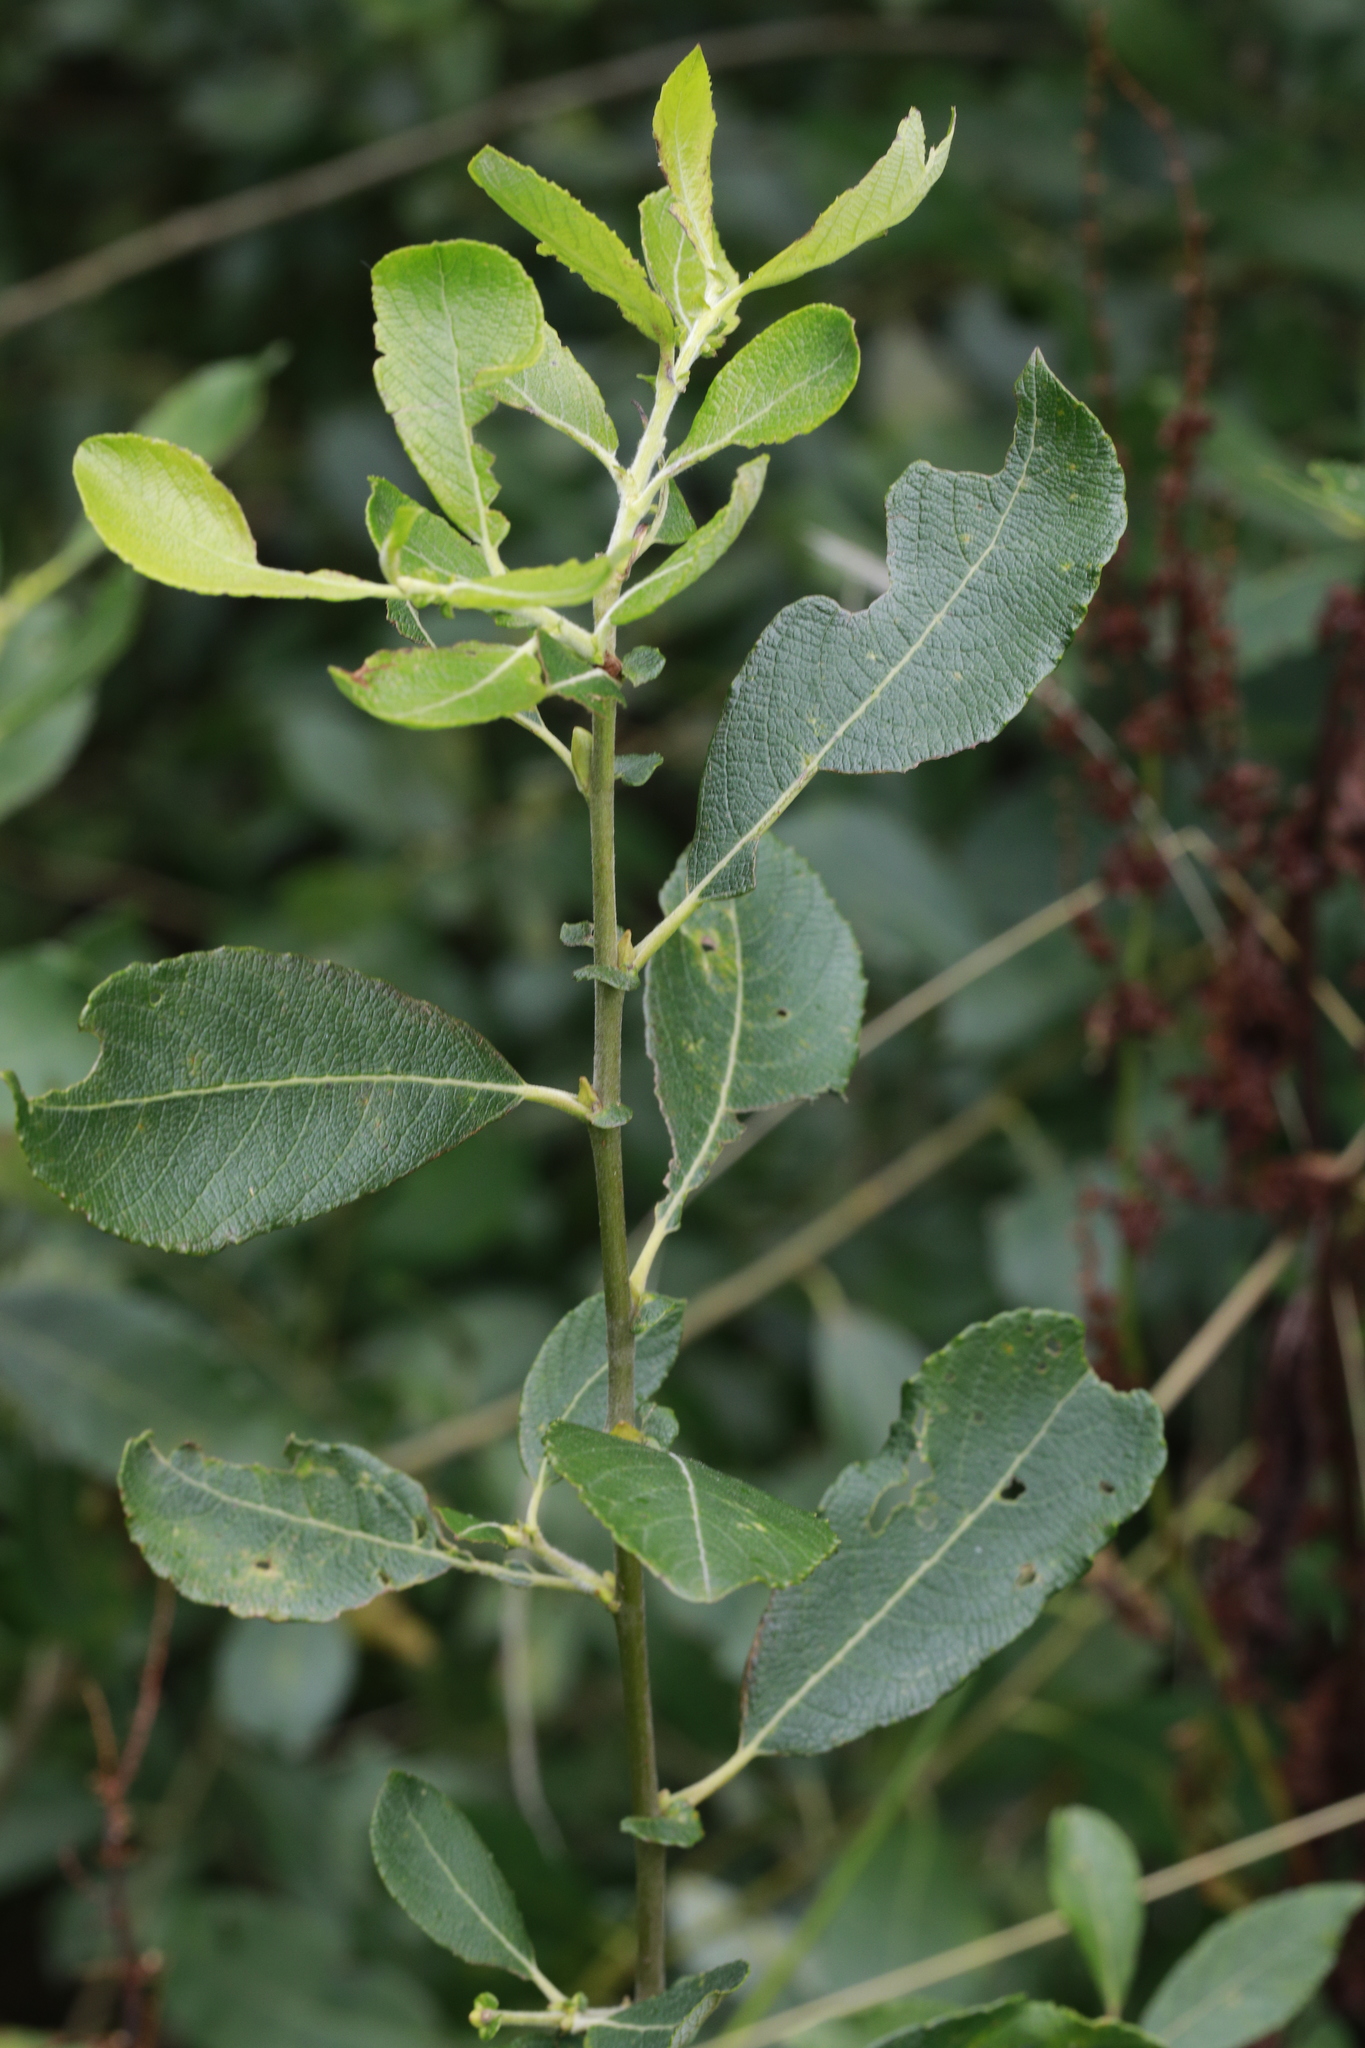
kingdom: Plantae
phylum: Tracheophyta
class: Magnoliopsida
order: Malpighiales
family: Salicaceae
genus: Salix
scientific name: Salix cinerea
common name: Common sallow
